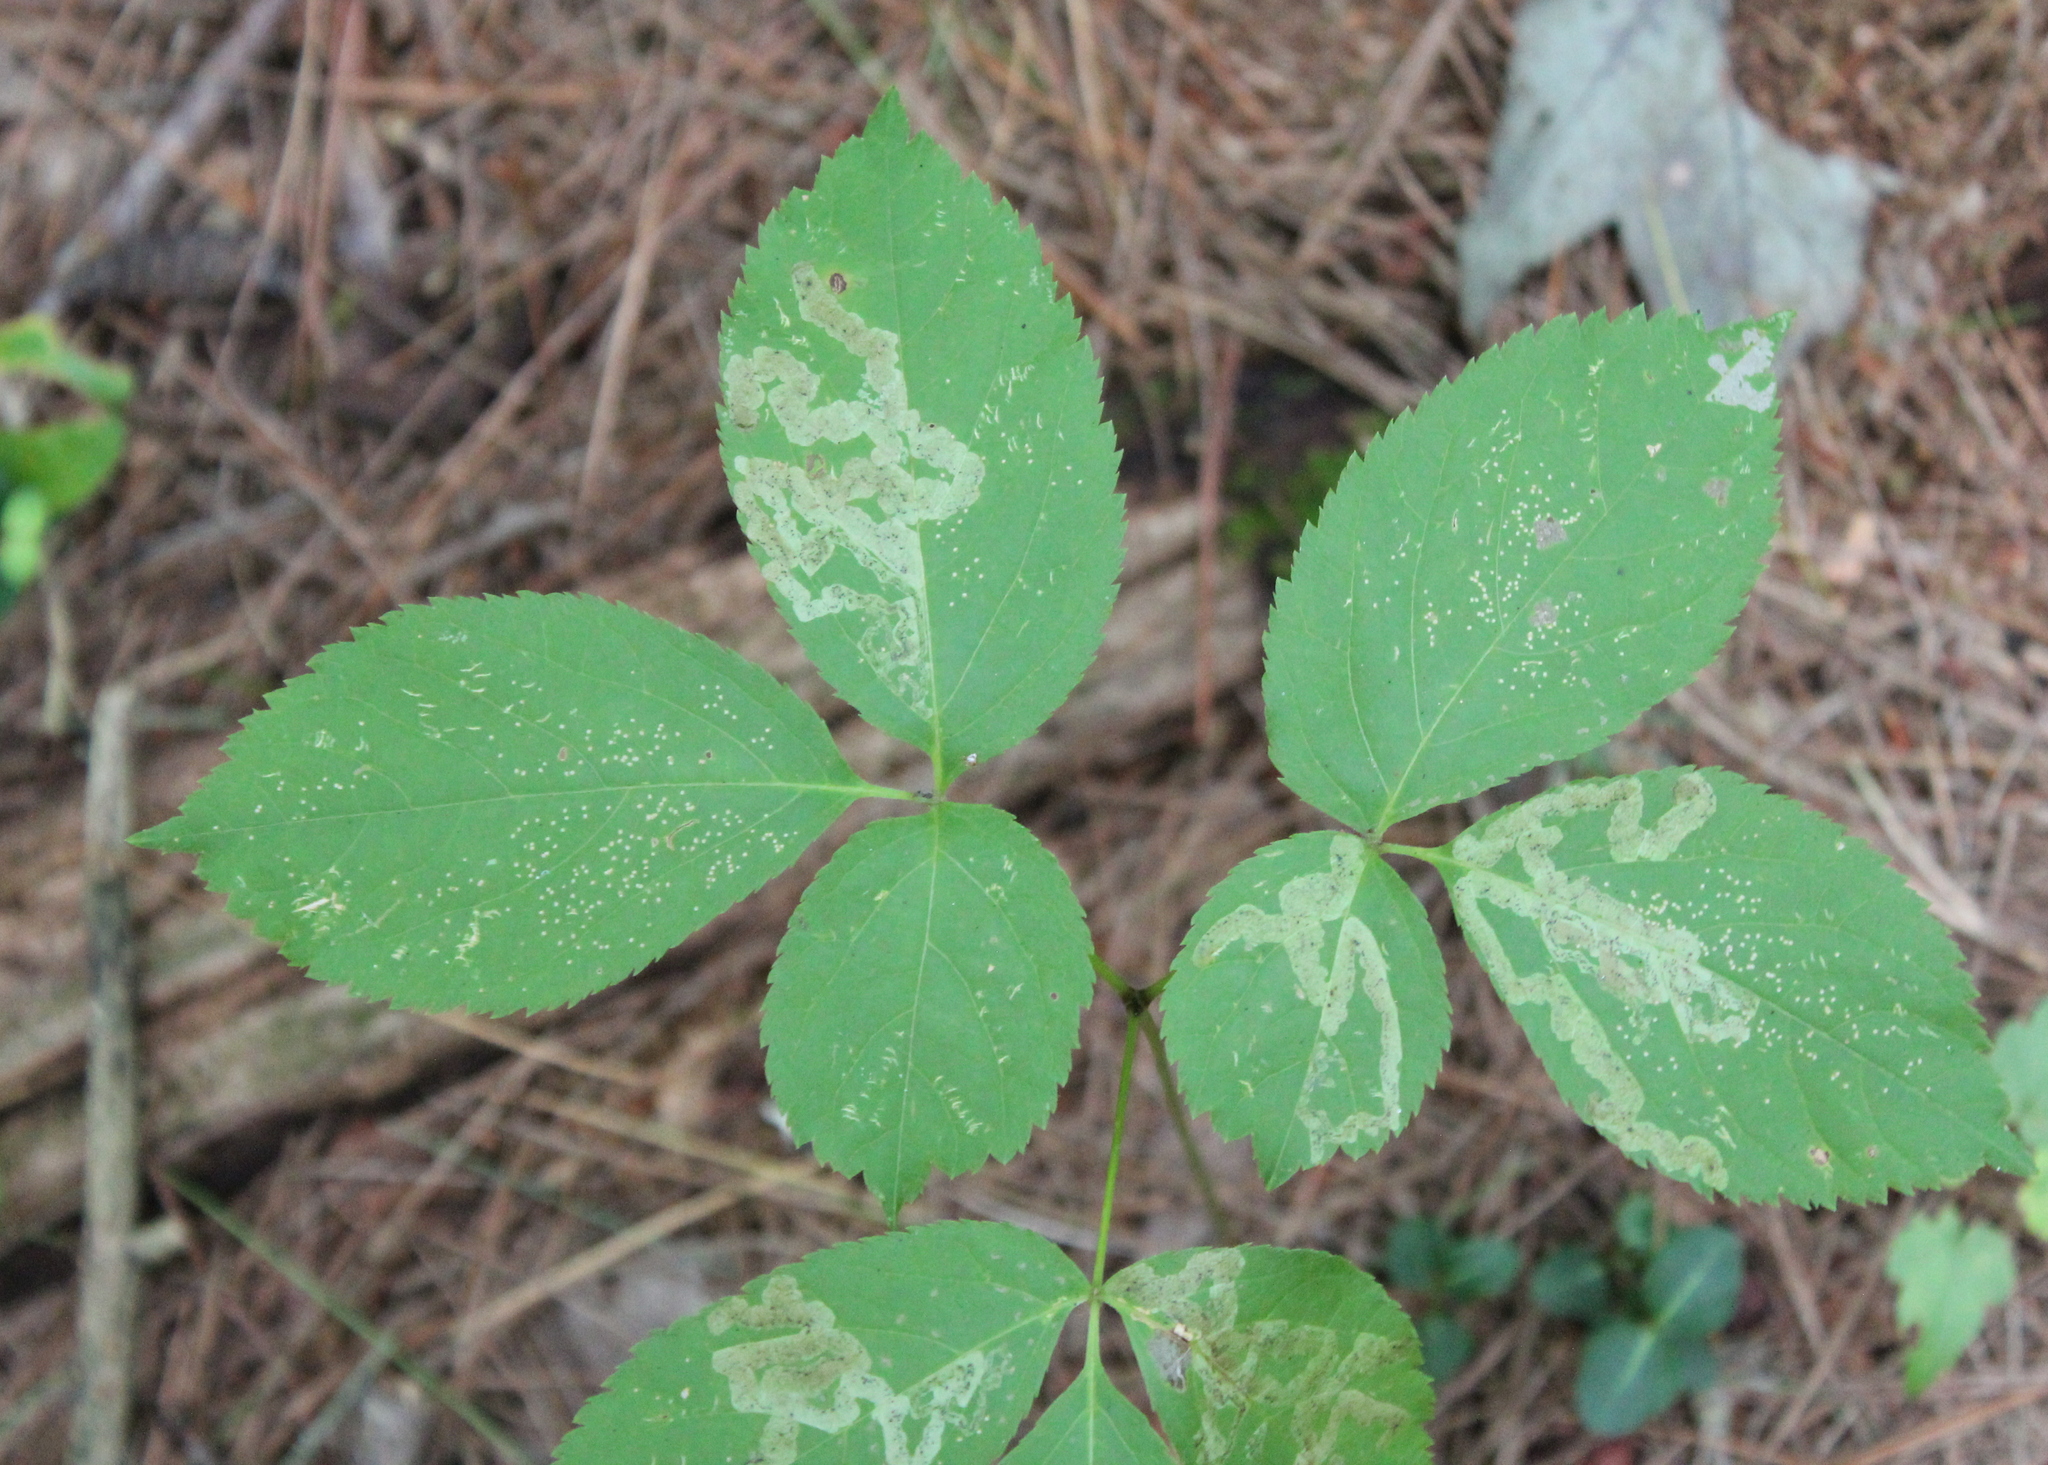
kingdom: Animalia
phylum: Arthropoda
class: Insecta
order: Diptera
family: Agromyzidae
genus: Phytomyza
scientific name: Phytomyza aralivora
